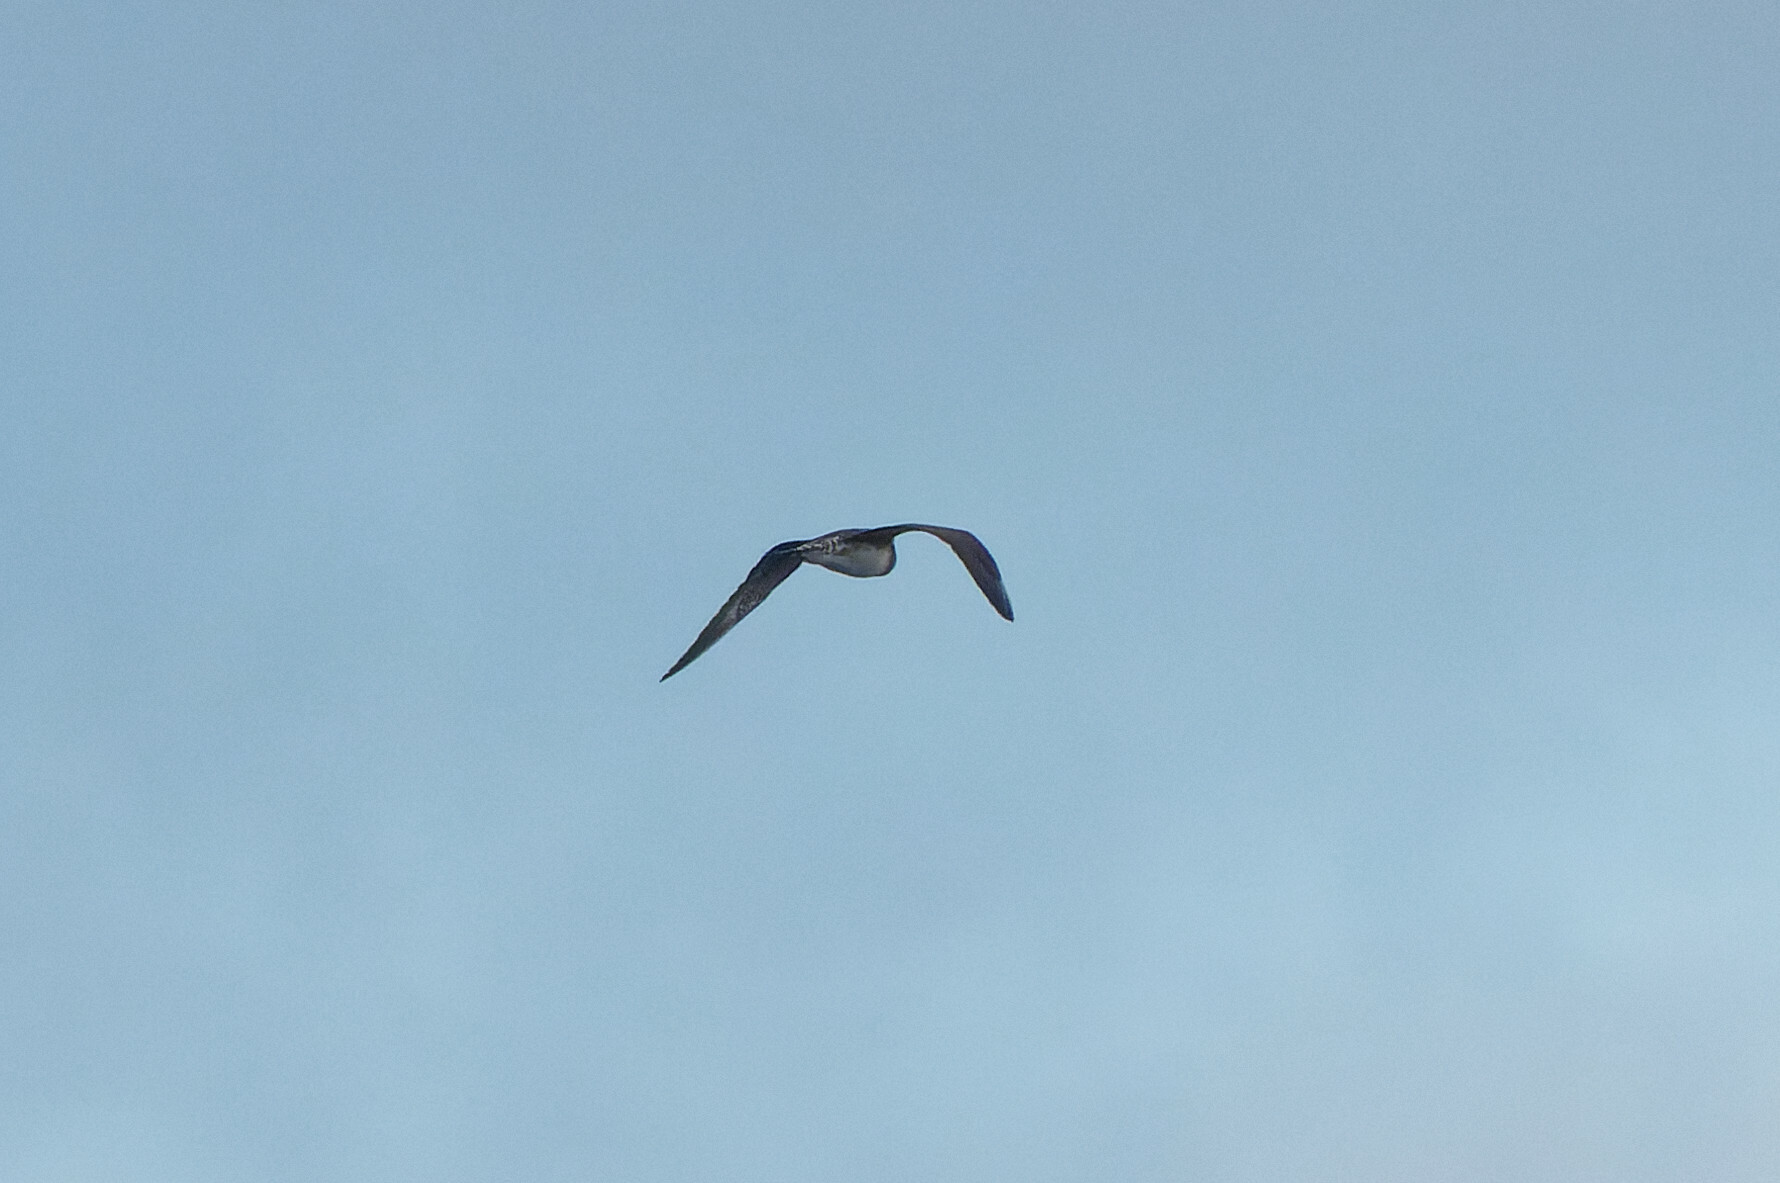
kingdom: Animalia
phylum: Chordata
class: Aves
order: Charadriiformes
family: Stercorariidae
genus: Stercorarius
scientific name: Stercorarius parasiticus
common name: Parasitic jaeger
